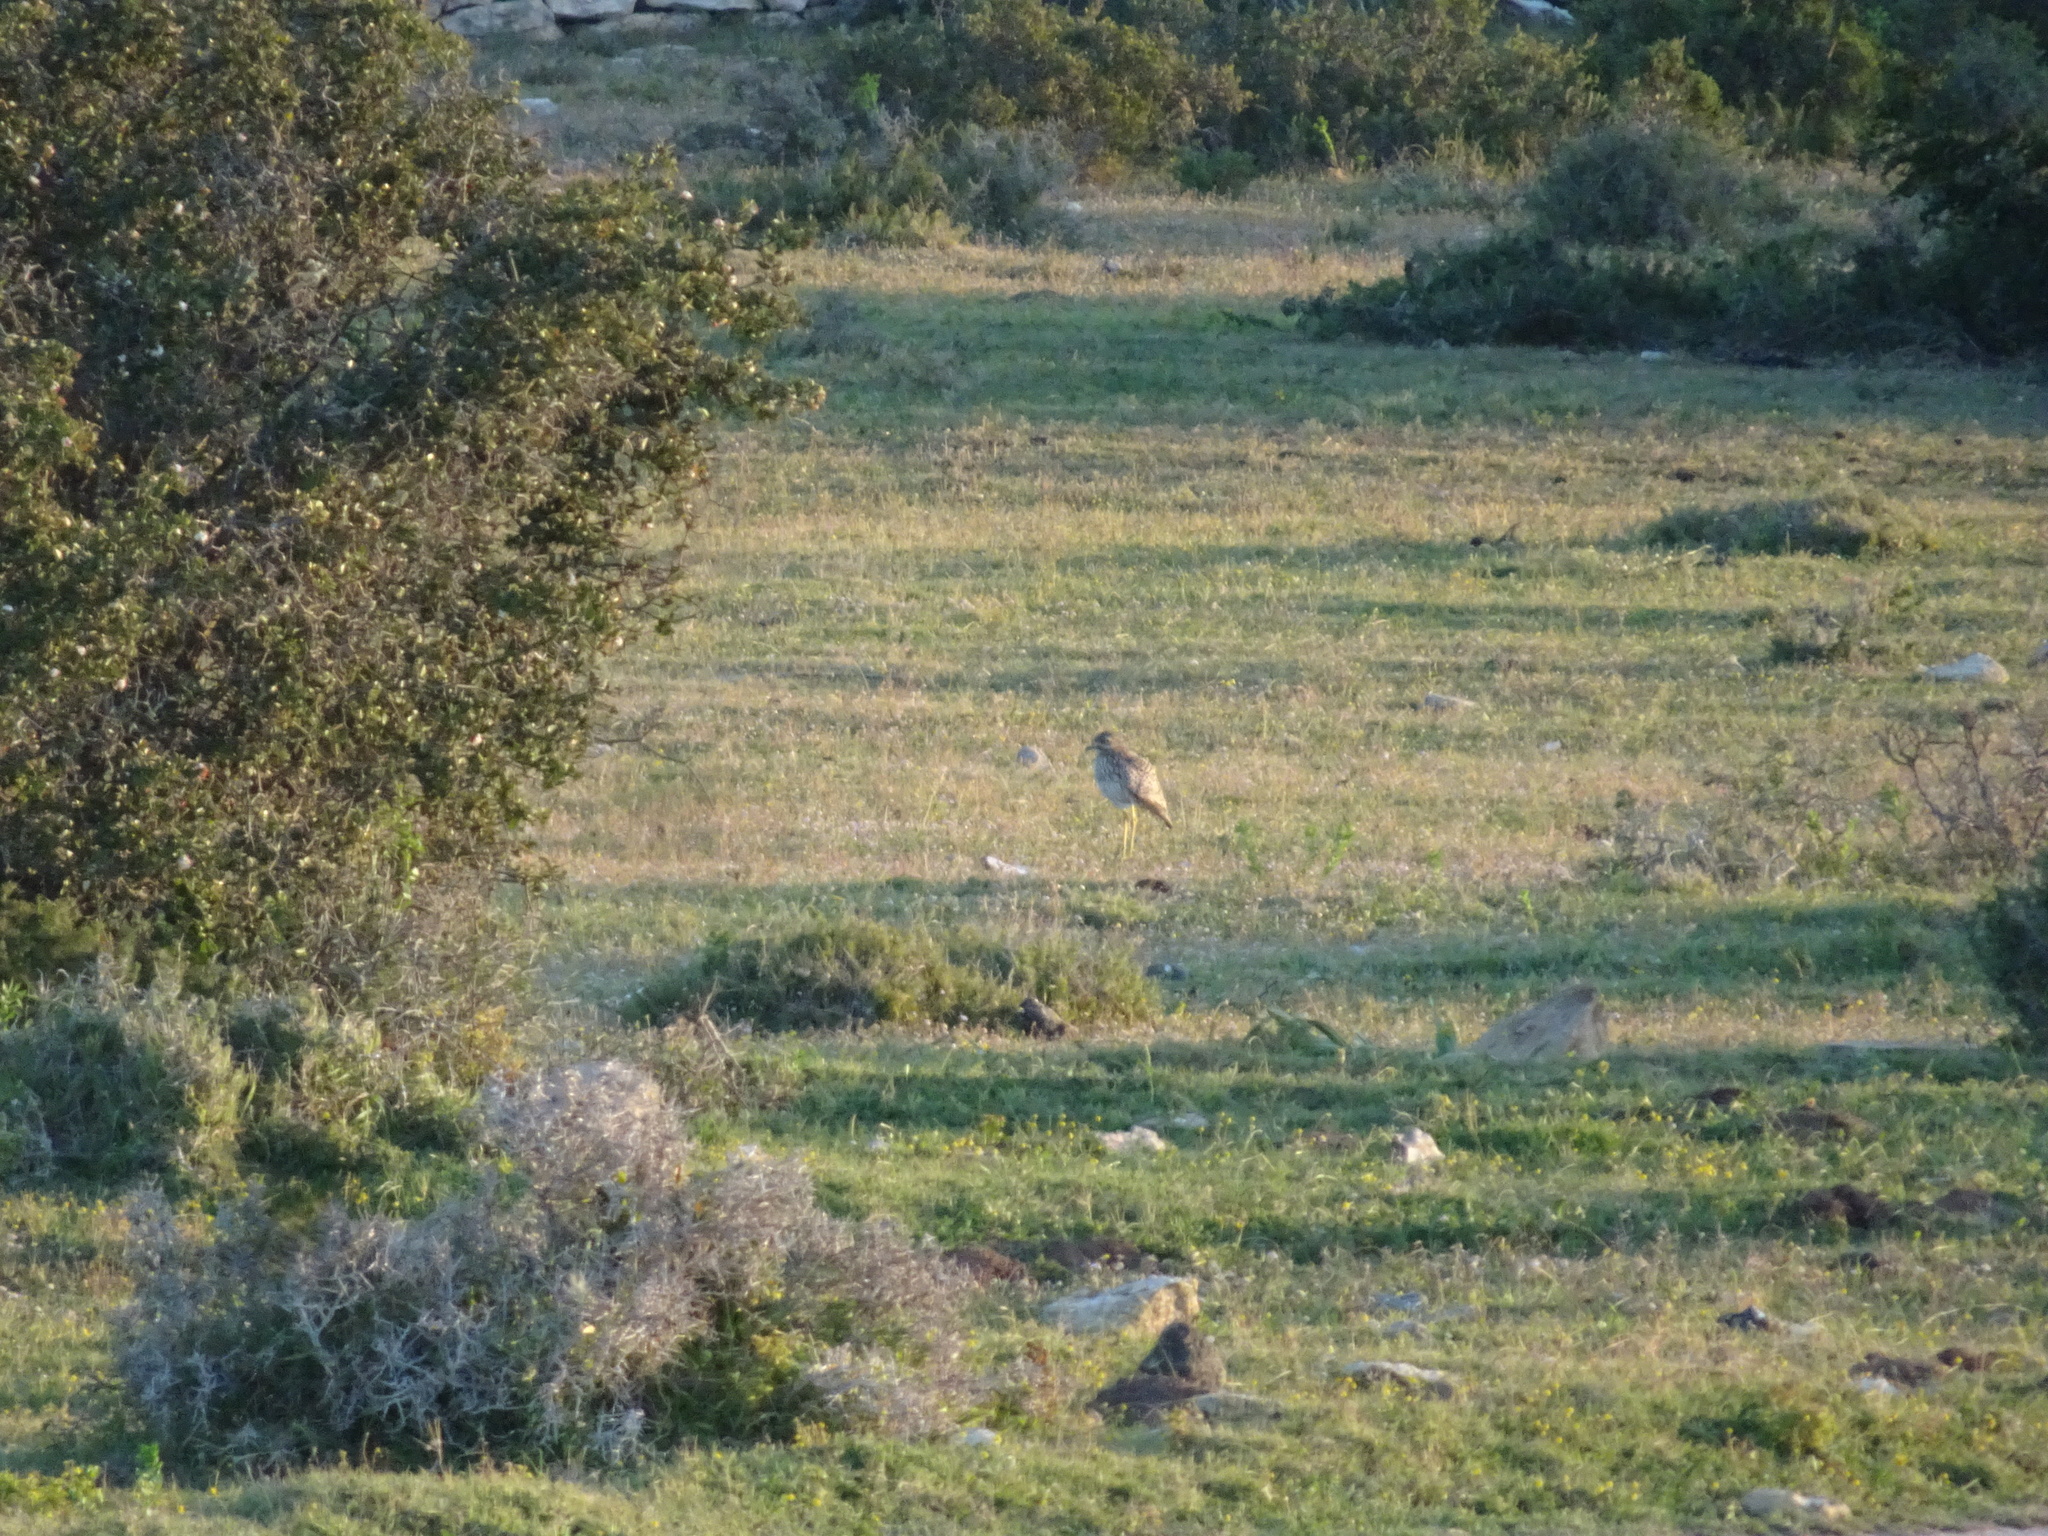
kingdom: Animalia
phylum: Chordata
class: Aves
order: Charadriiformes
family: Burhinidae
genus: Burhinus
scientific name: Burhinus capensis
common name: Spotted thick-knee
